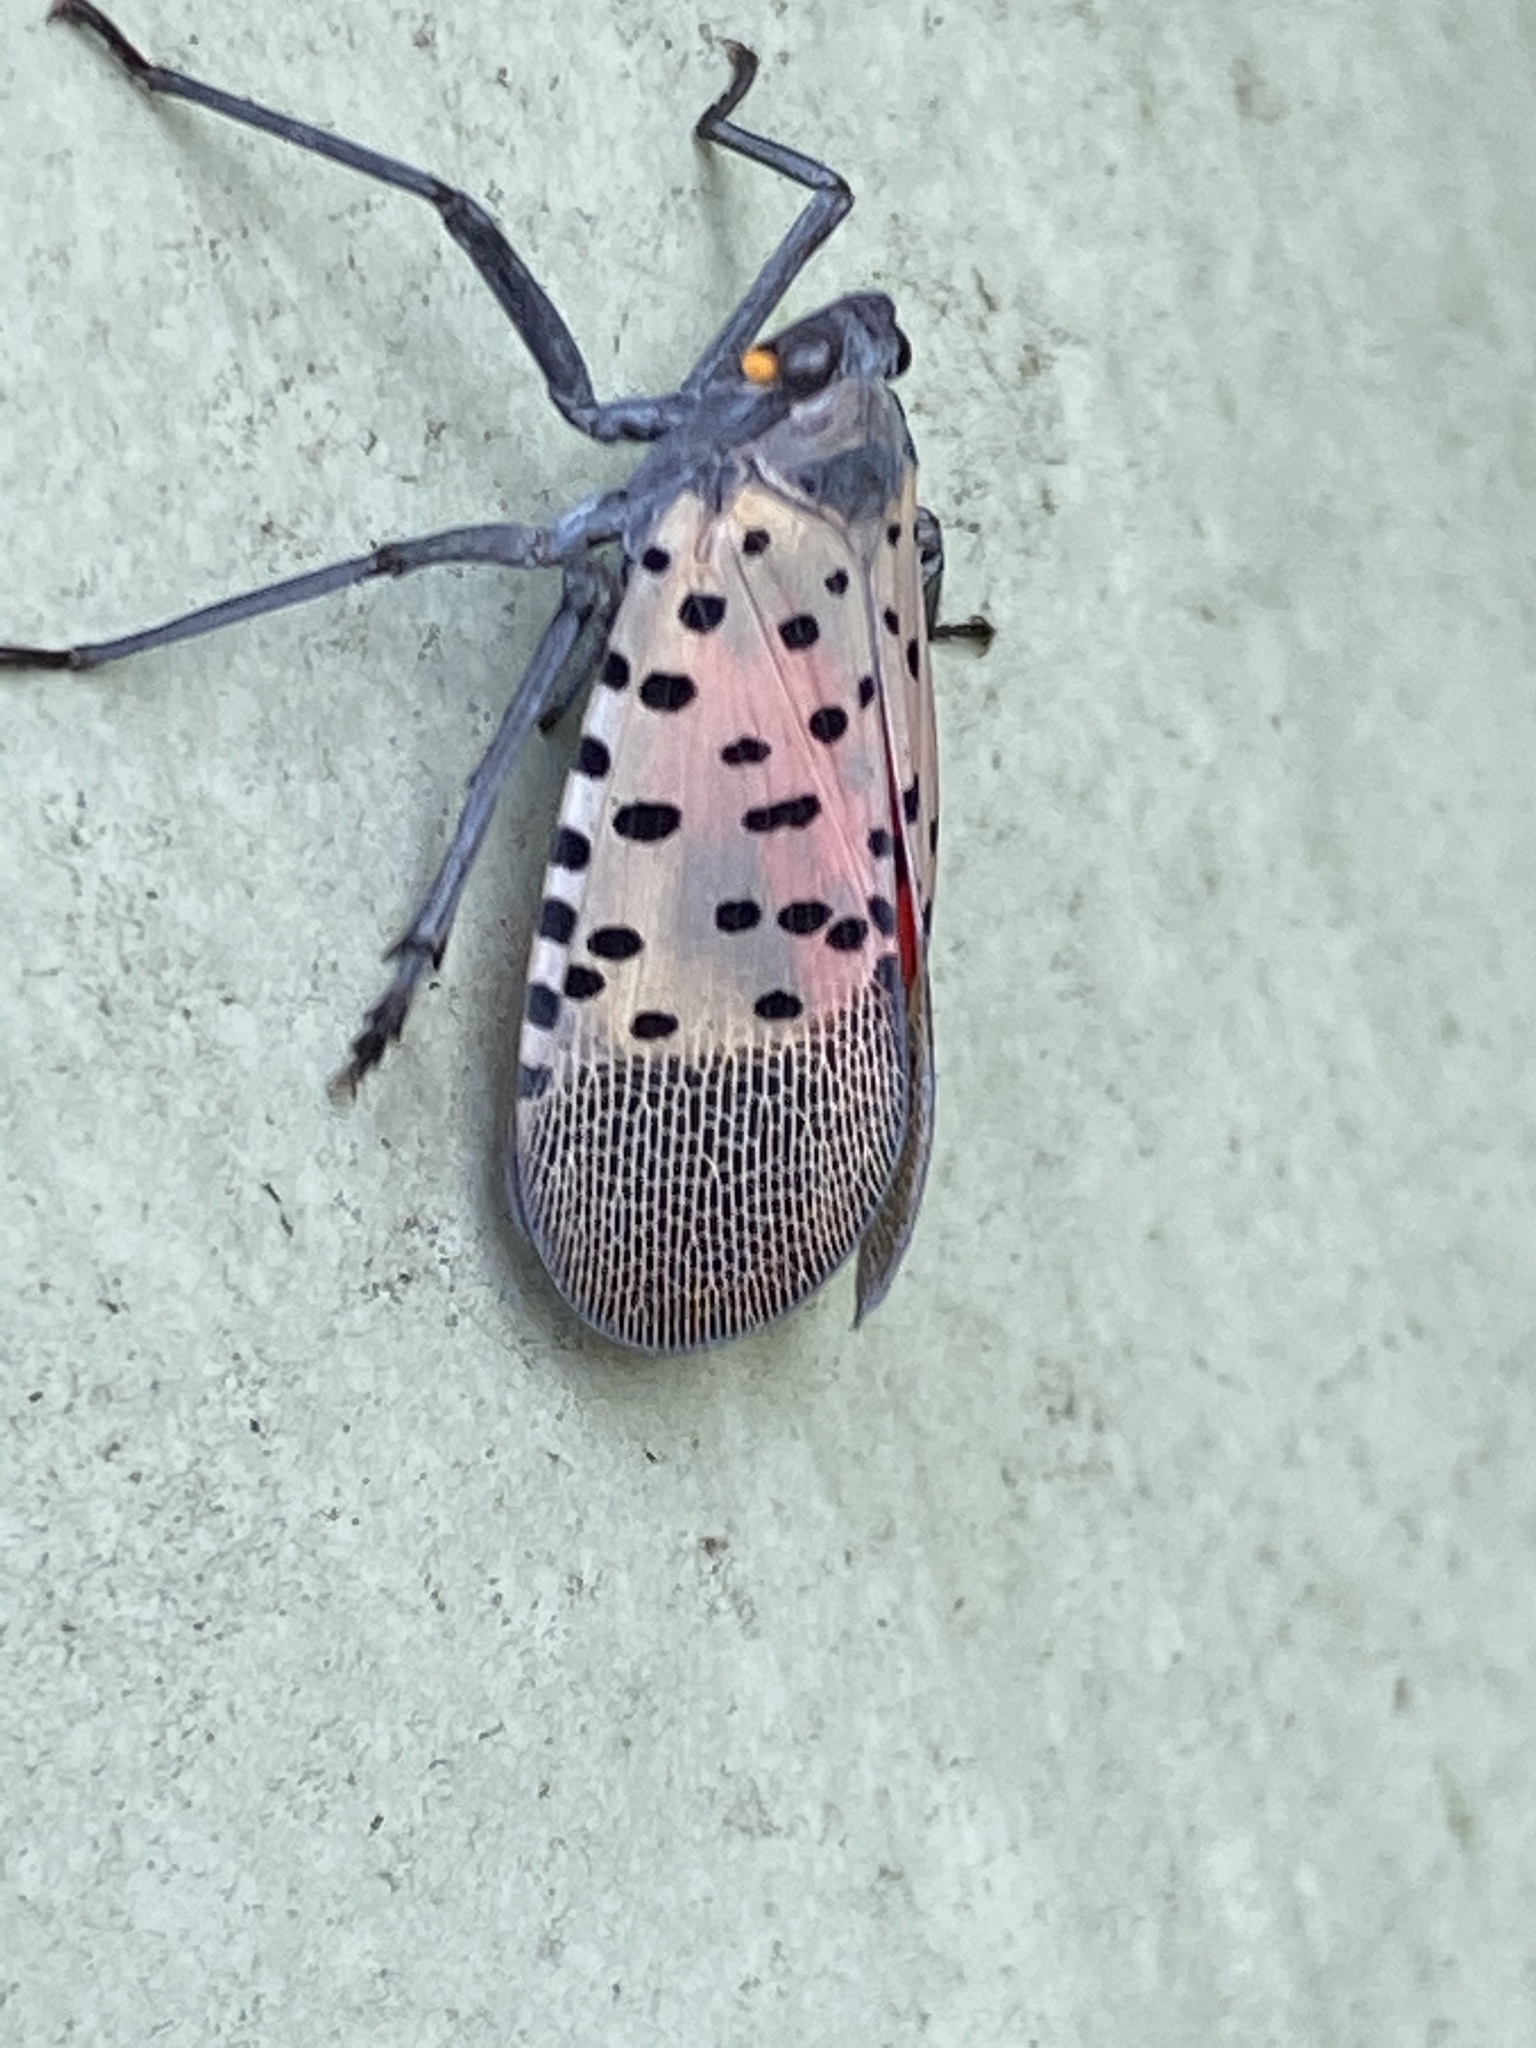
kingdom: Animalia
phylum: Arthropoda
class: Insecta
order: Hemiptera
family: Fulgoridae
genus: Lycorma
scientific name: Lycorma delicatula
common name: Spotted lanternfly
